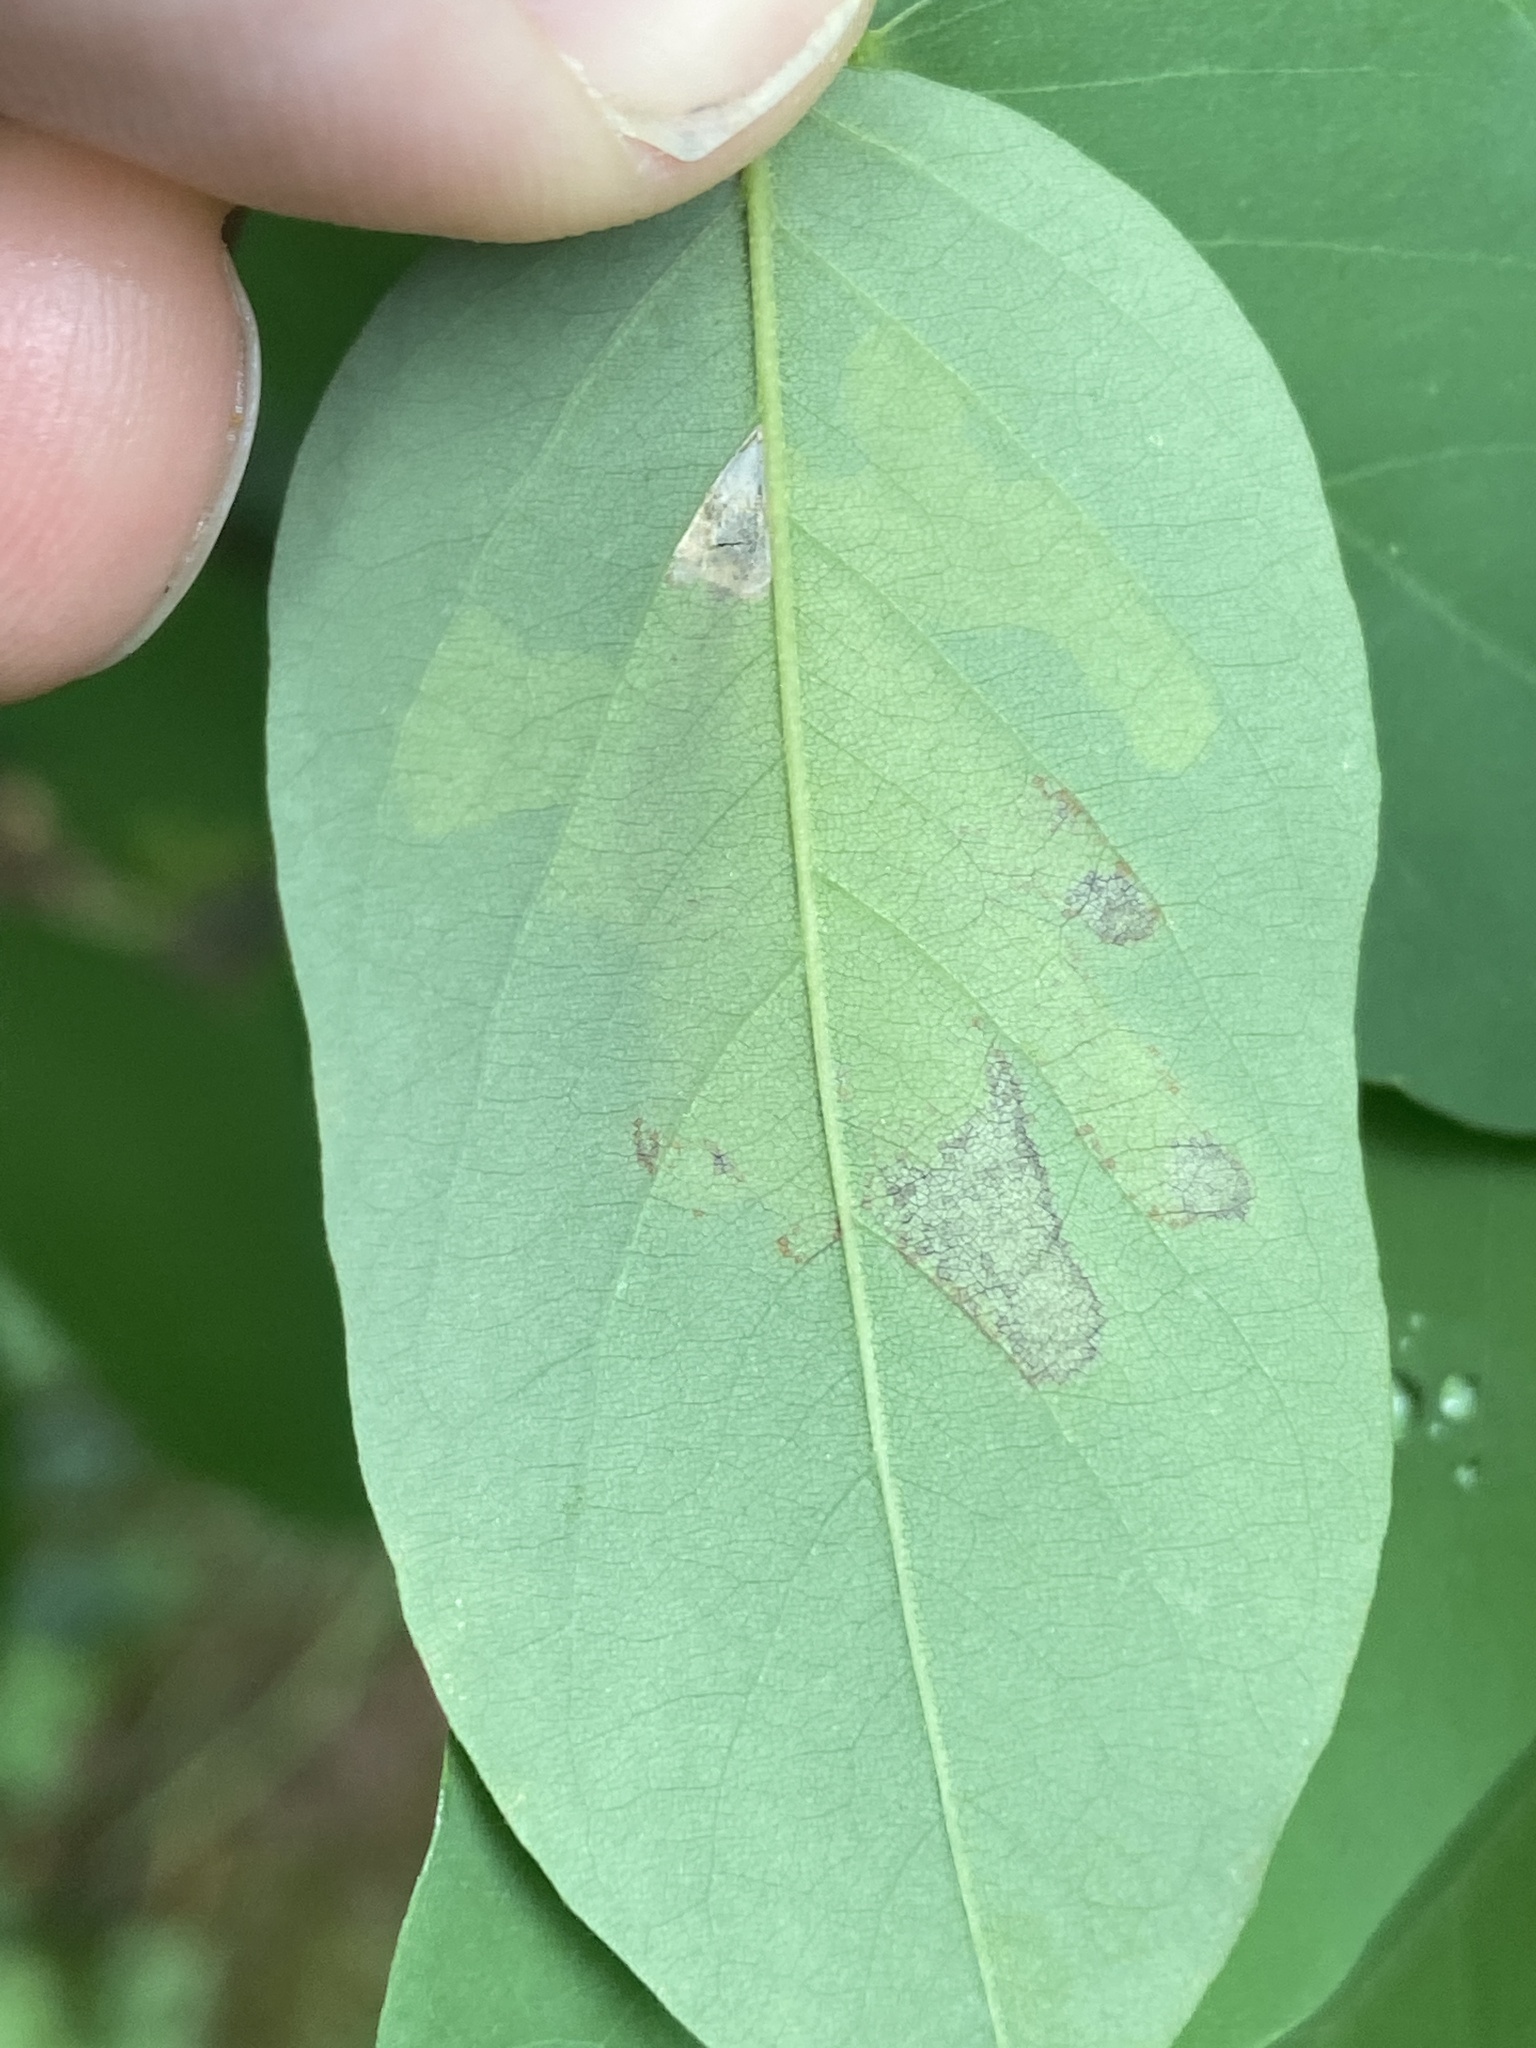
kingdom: Animalia
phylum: Arthropoda
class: Insecta
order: Lepidoptera
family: Gracillariidae
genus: Parectopa
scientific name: Parectopa robiniella
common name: Locust digitate leafminer
